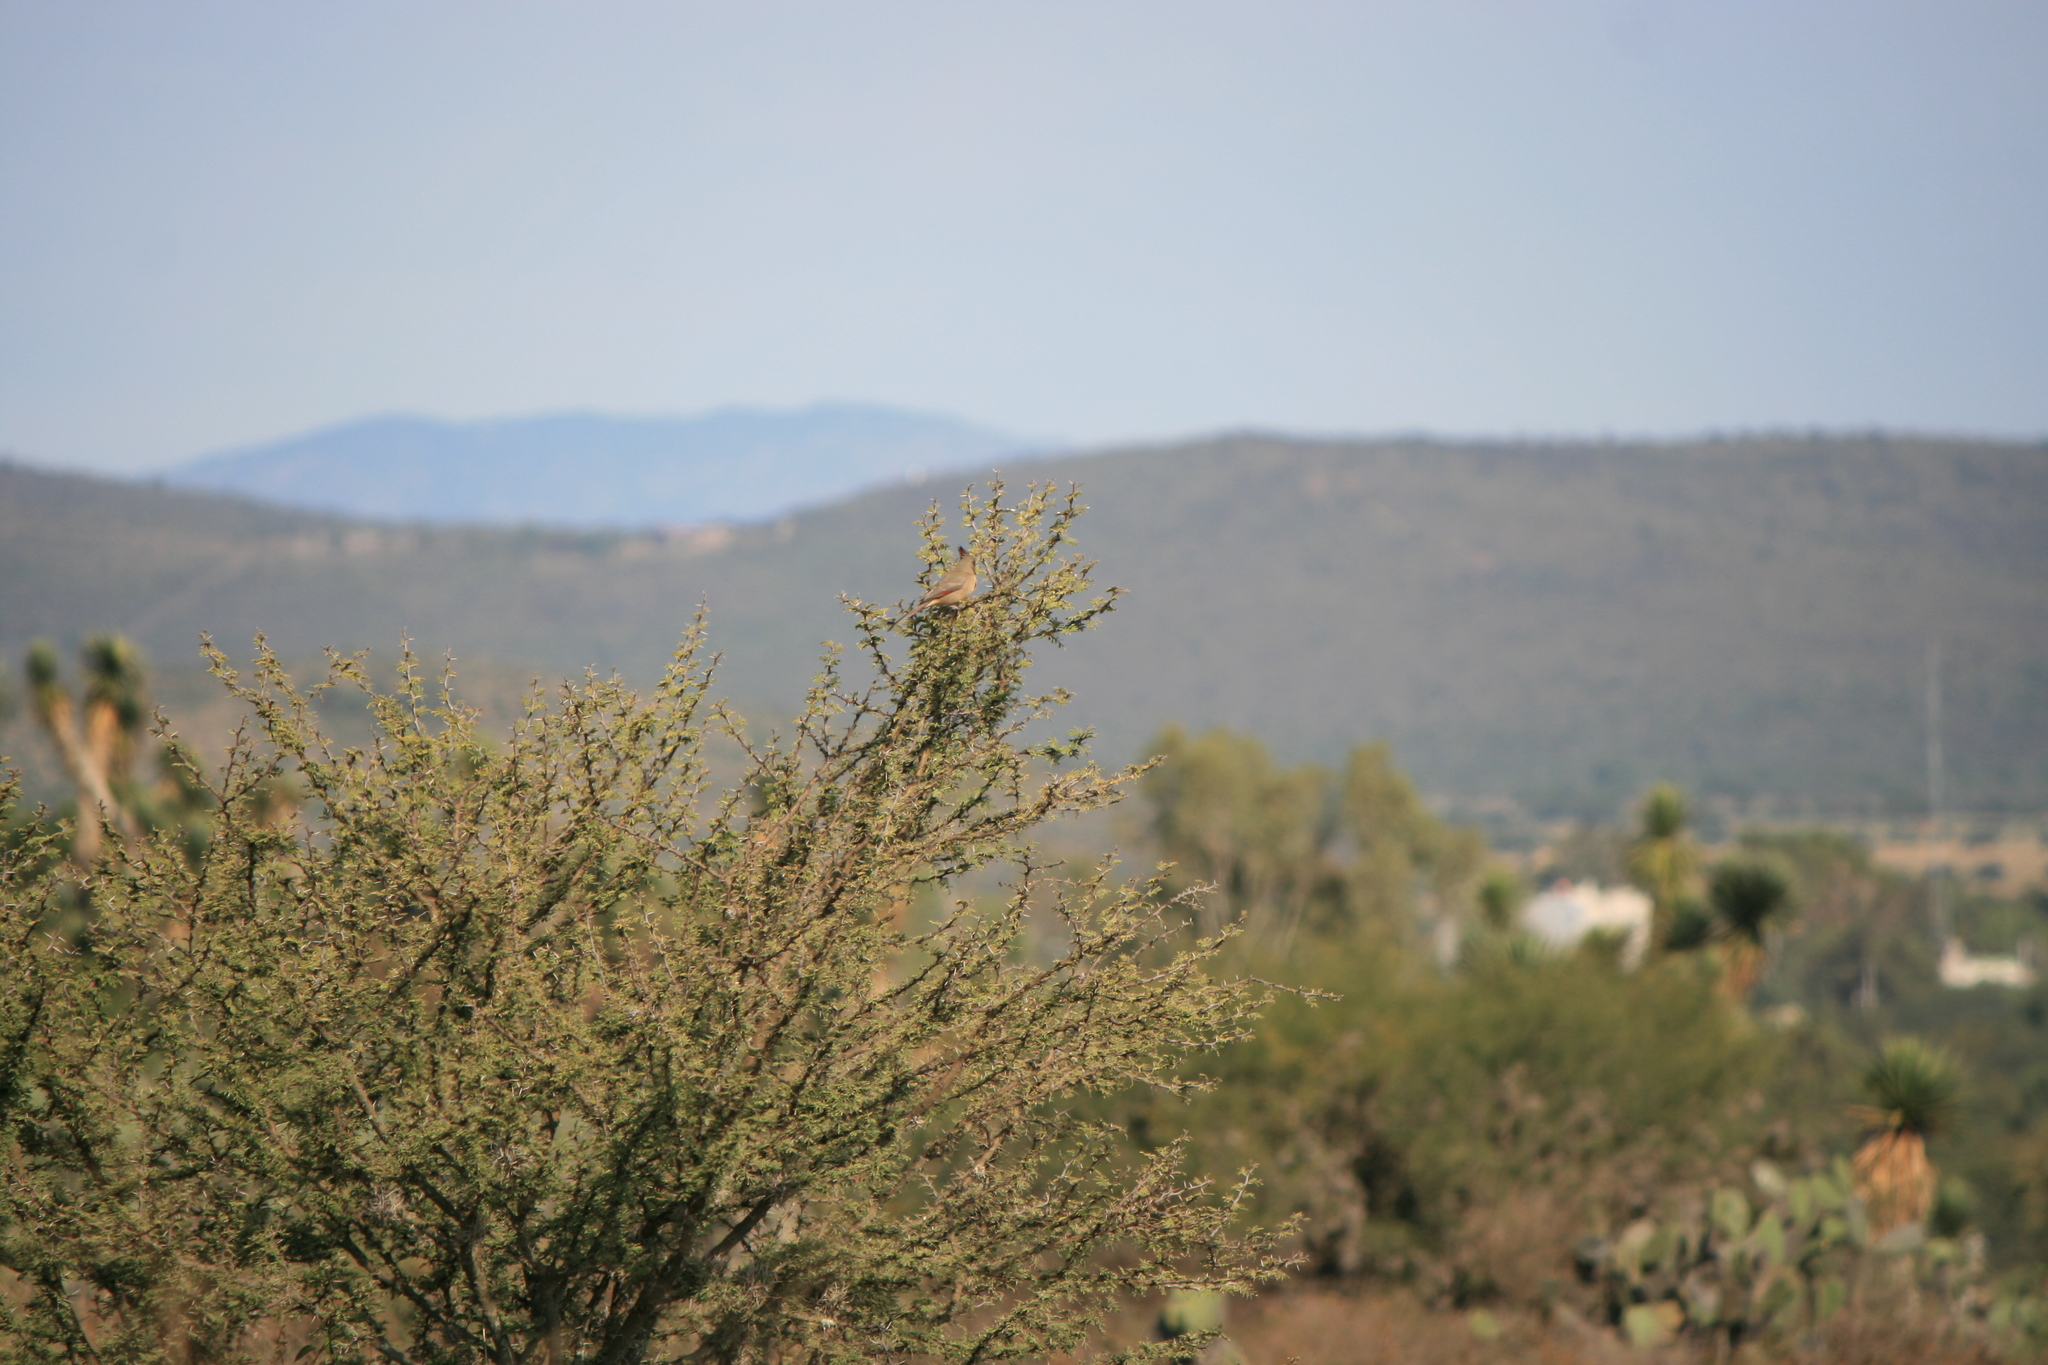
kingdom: Animalia
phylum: Chordata
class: Aves
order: Passeriformes
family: Cardinalidae
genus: Cardinalis
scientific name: Cardinalis sinuatus
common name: Pyrrhuloxia
